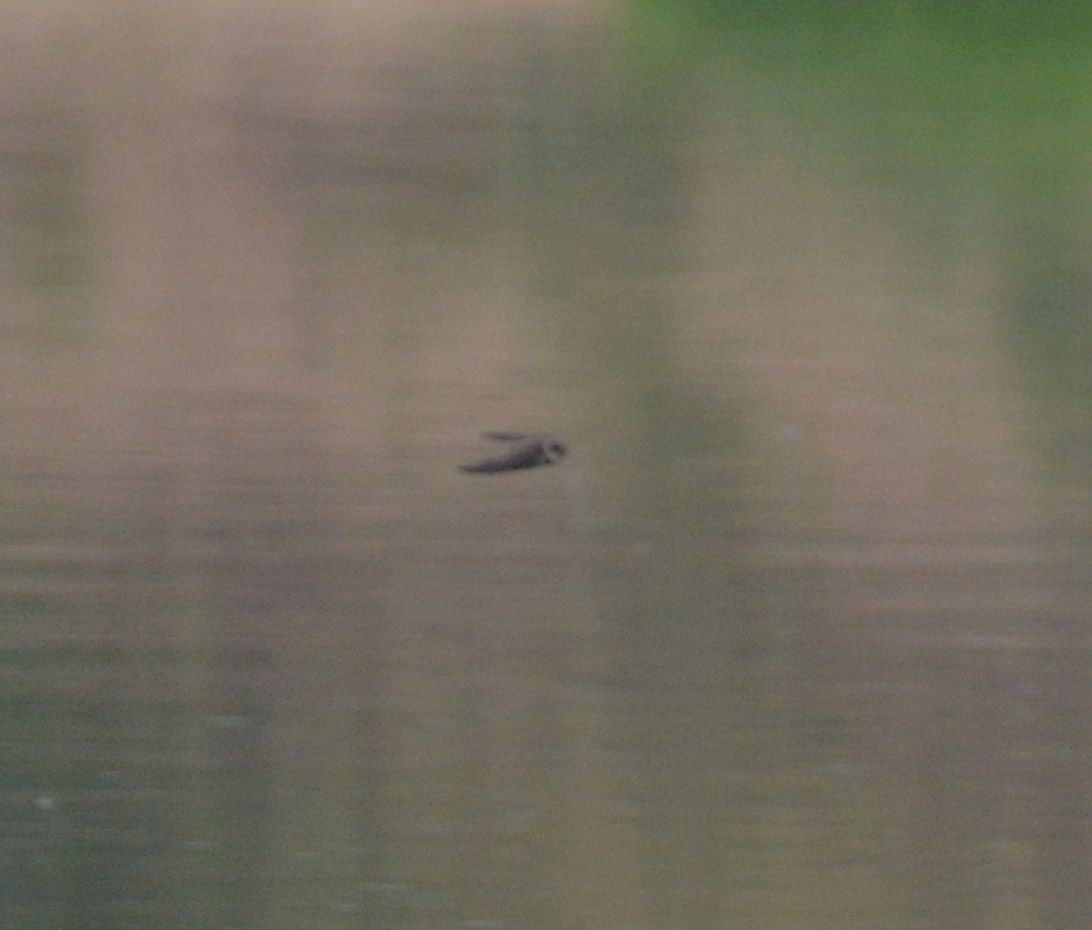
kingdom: Animalia
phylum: Chordata
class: Aves
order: Passeriformes
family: Hirundinidae
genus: Riparia
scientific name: Riparia riparia
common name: Sand martin
